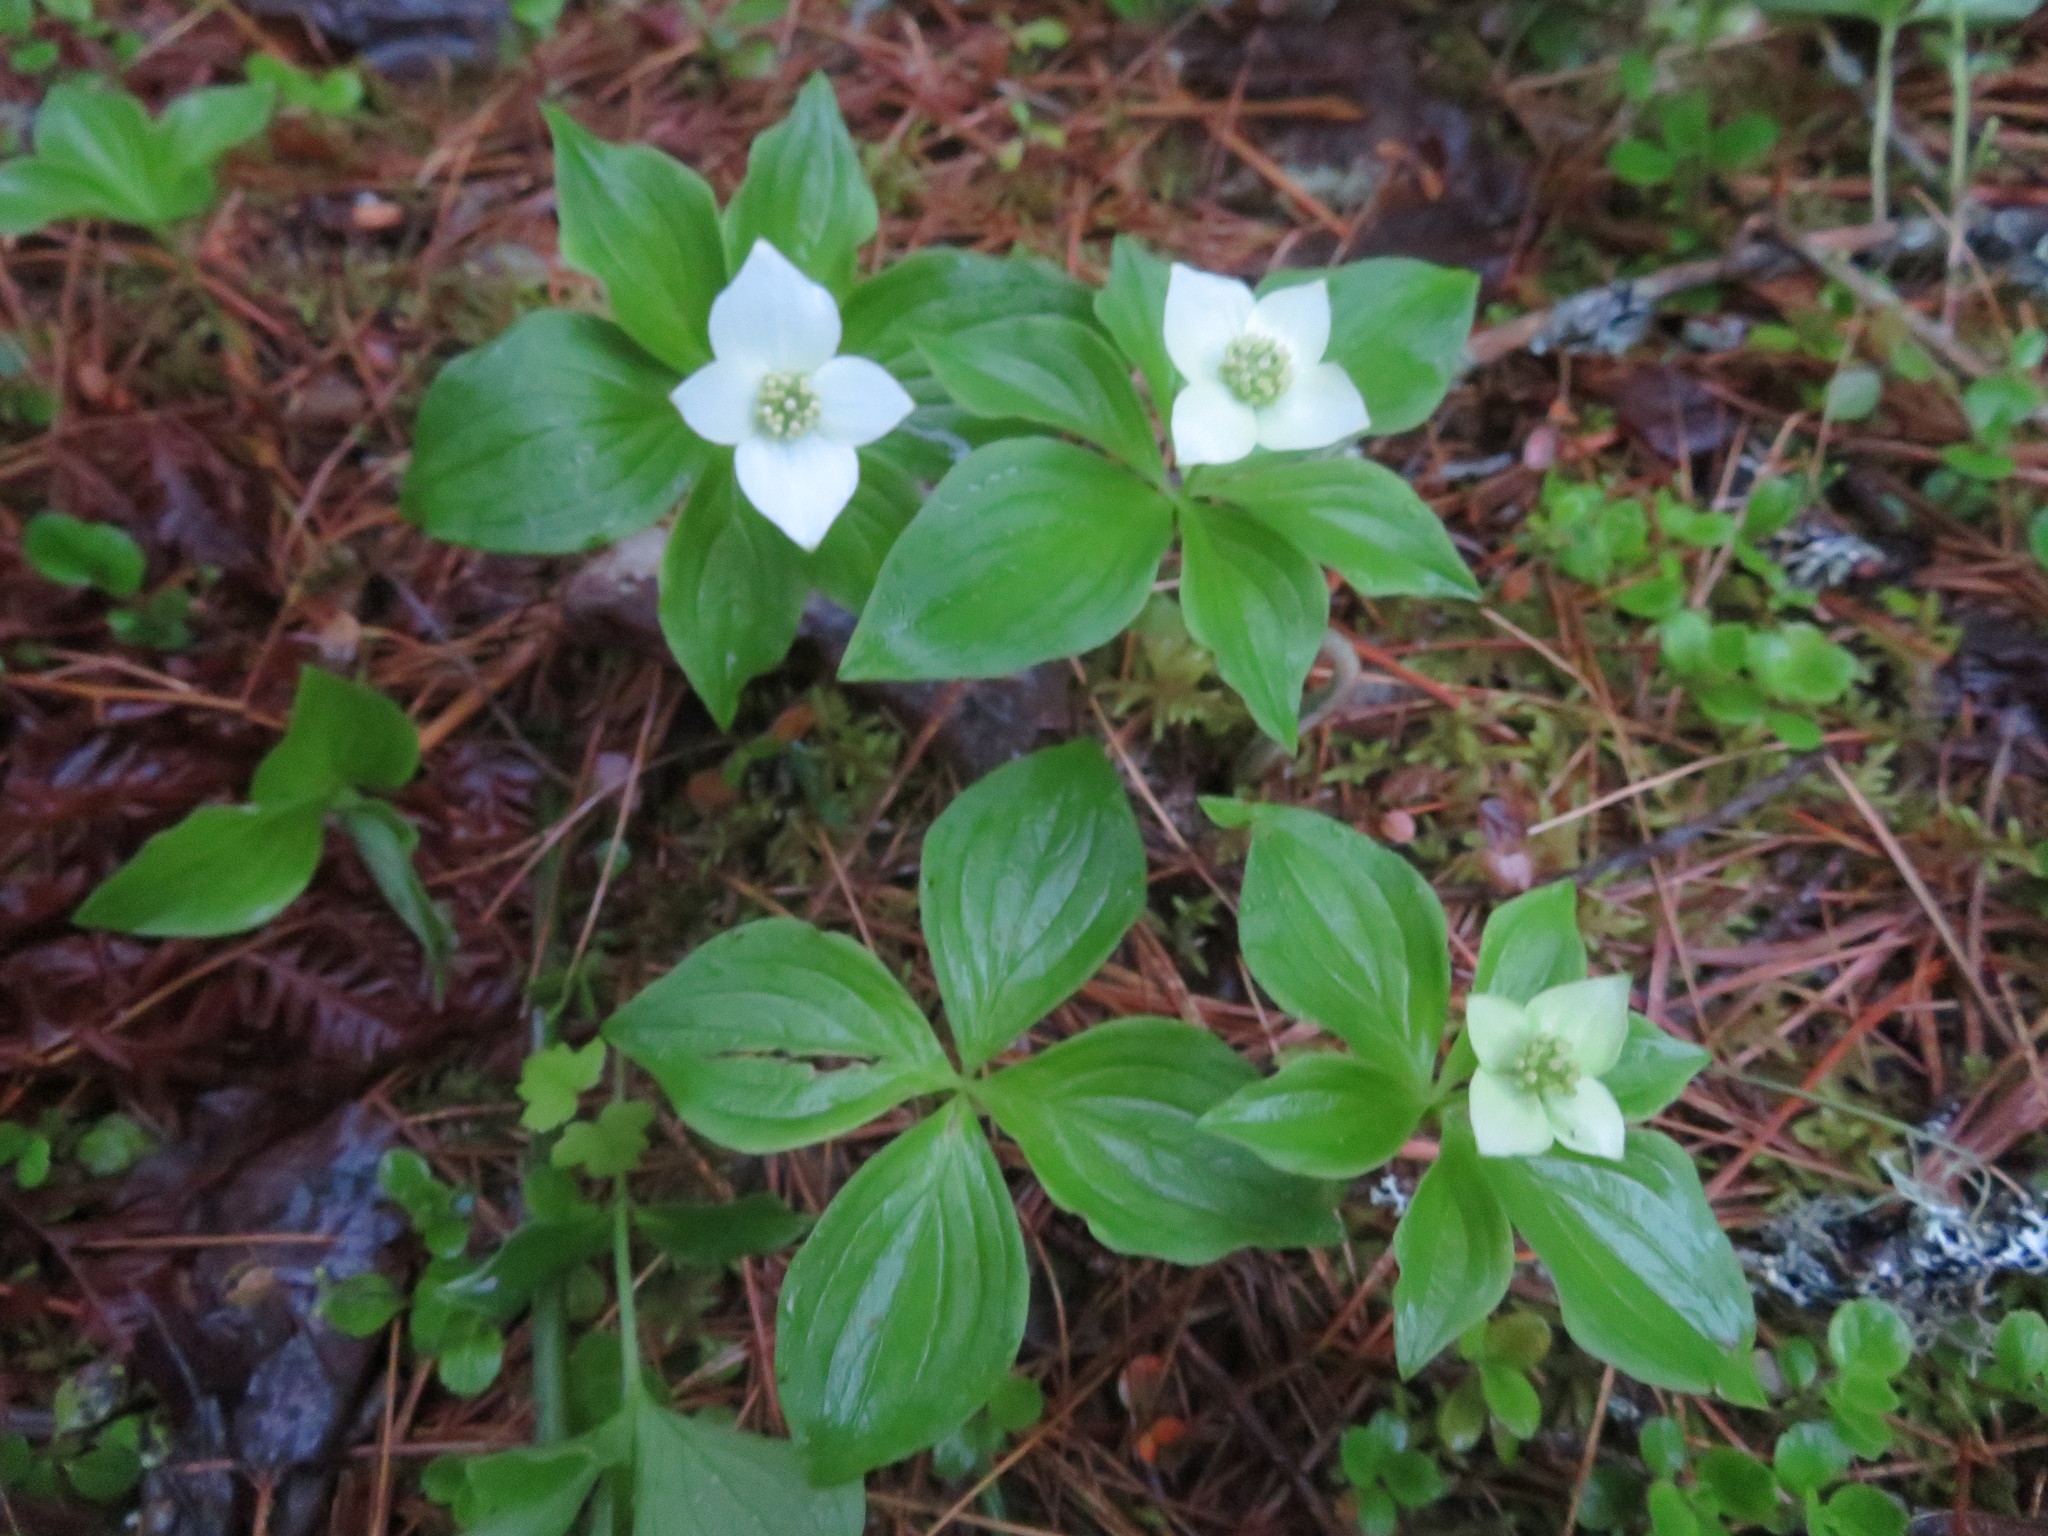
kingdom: Plantae
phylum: Tracheophyta
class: Magnoliopsida
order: Cornales
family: Cornaceae
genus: Cornus
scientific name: Cornus canadensis
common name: Creeping dogwood
